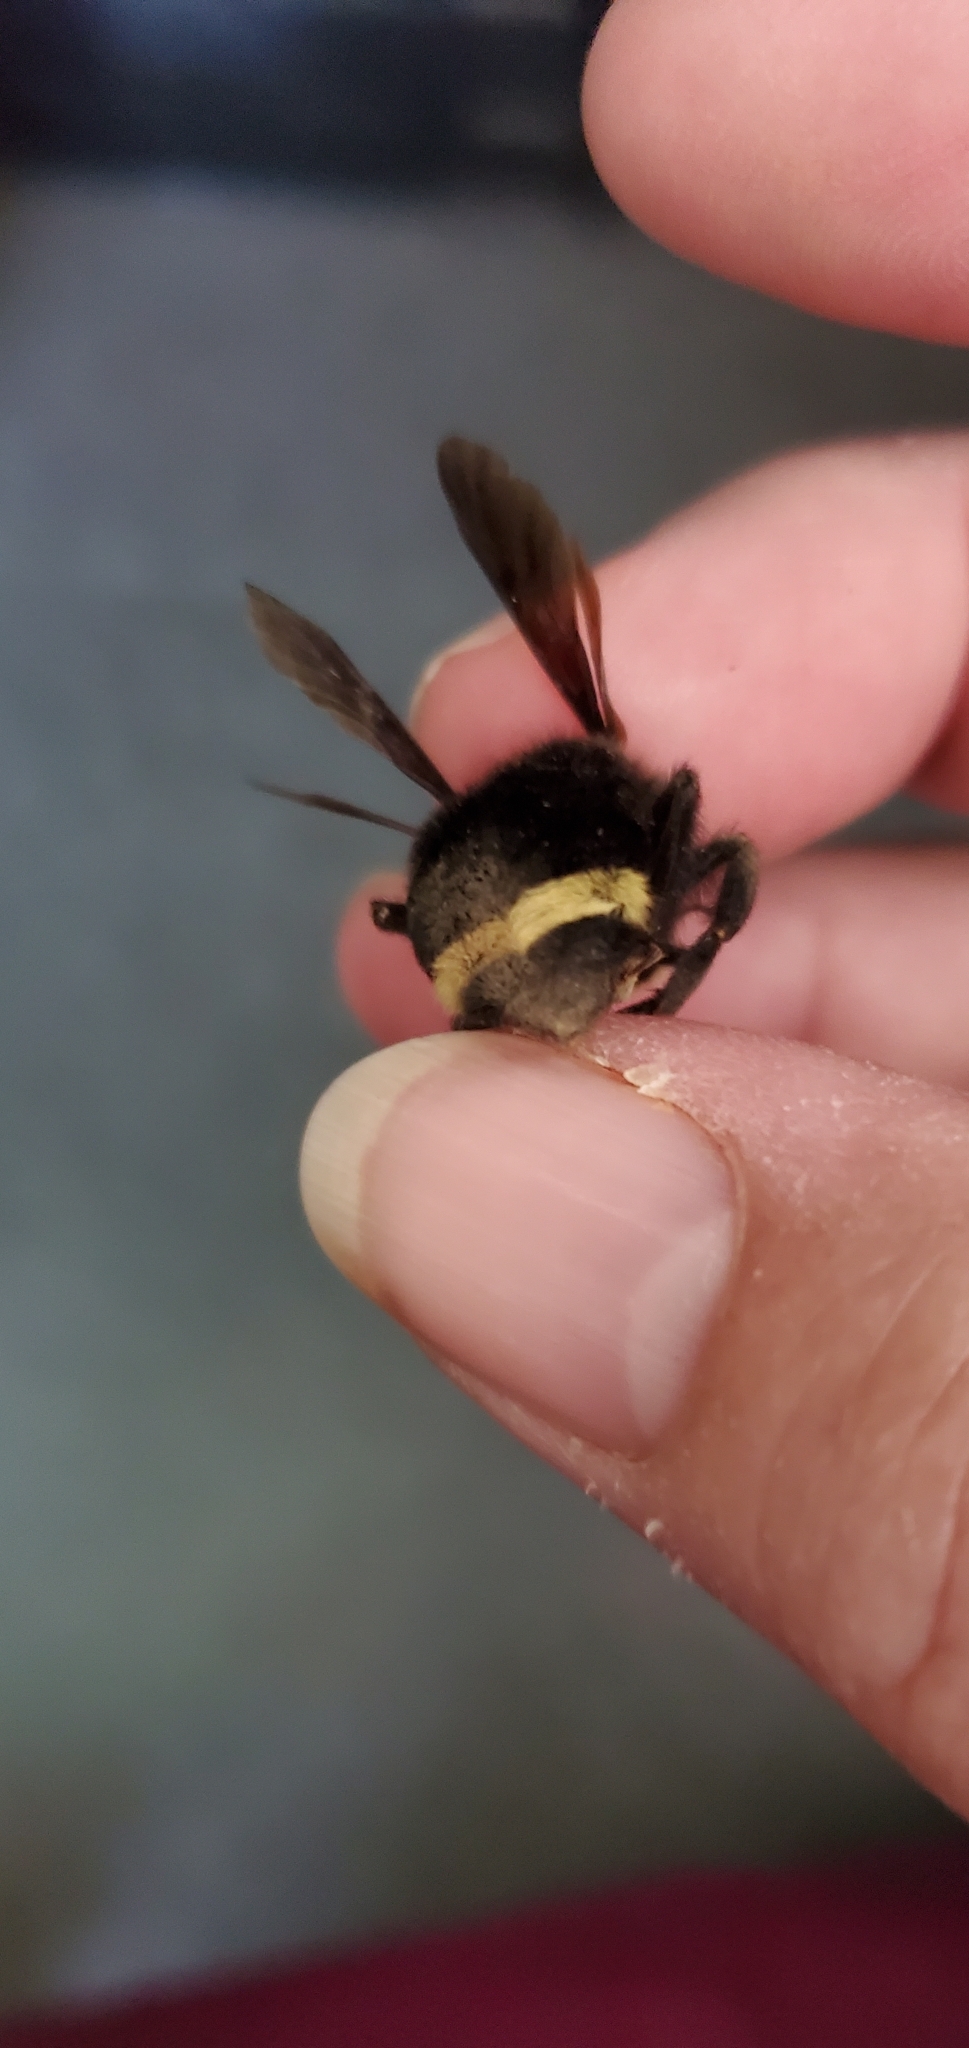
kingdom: Animalia
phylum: Arthropoda
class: Insecta
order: Hymenoptera
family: Apidae
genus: Bombus
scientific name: Bombus vosnesenskii
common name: Vosnesensky bumble bee
